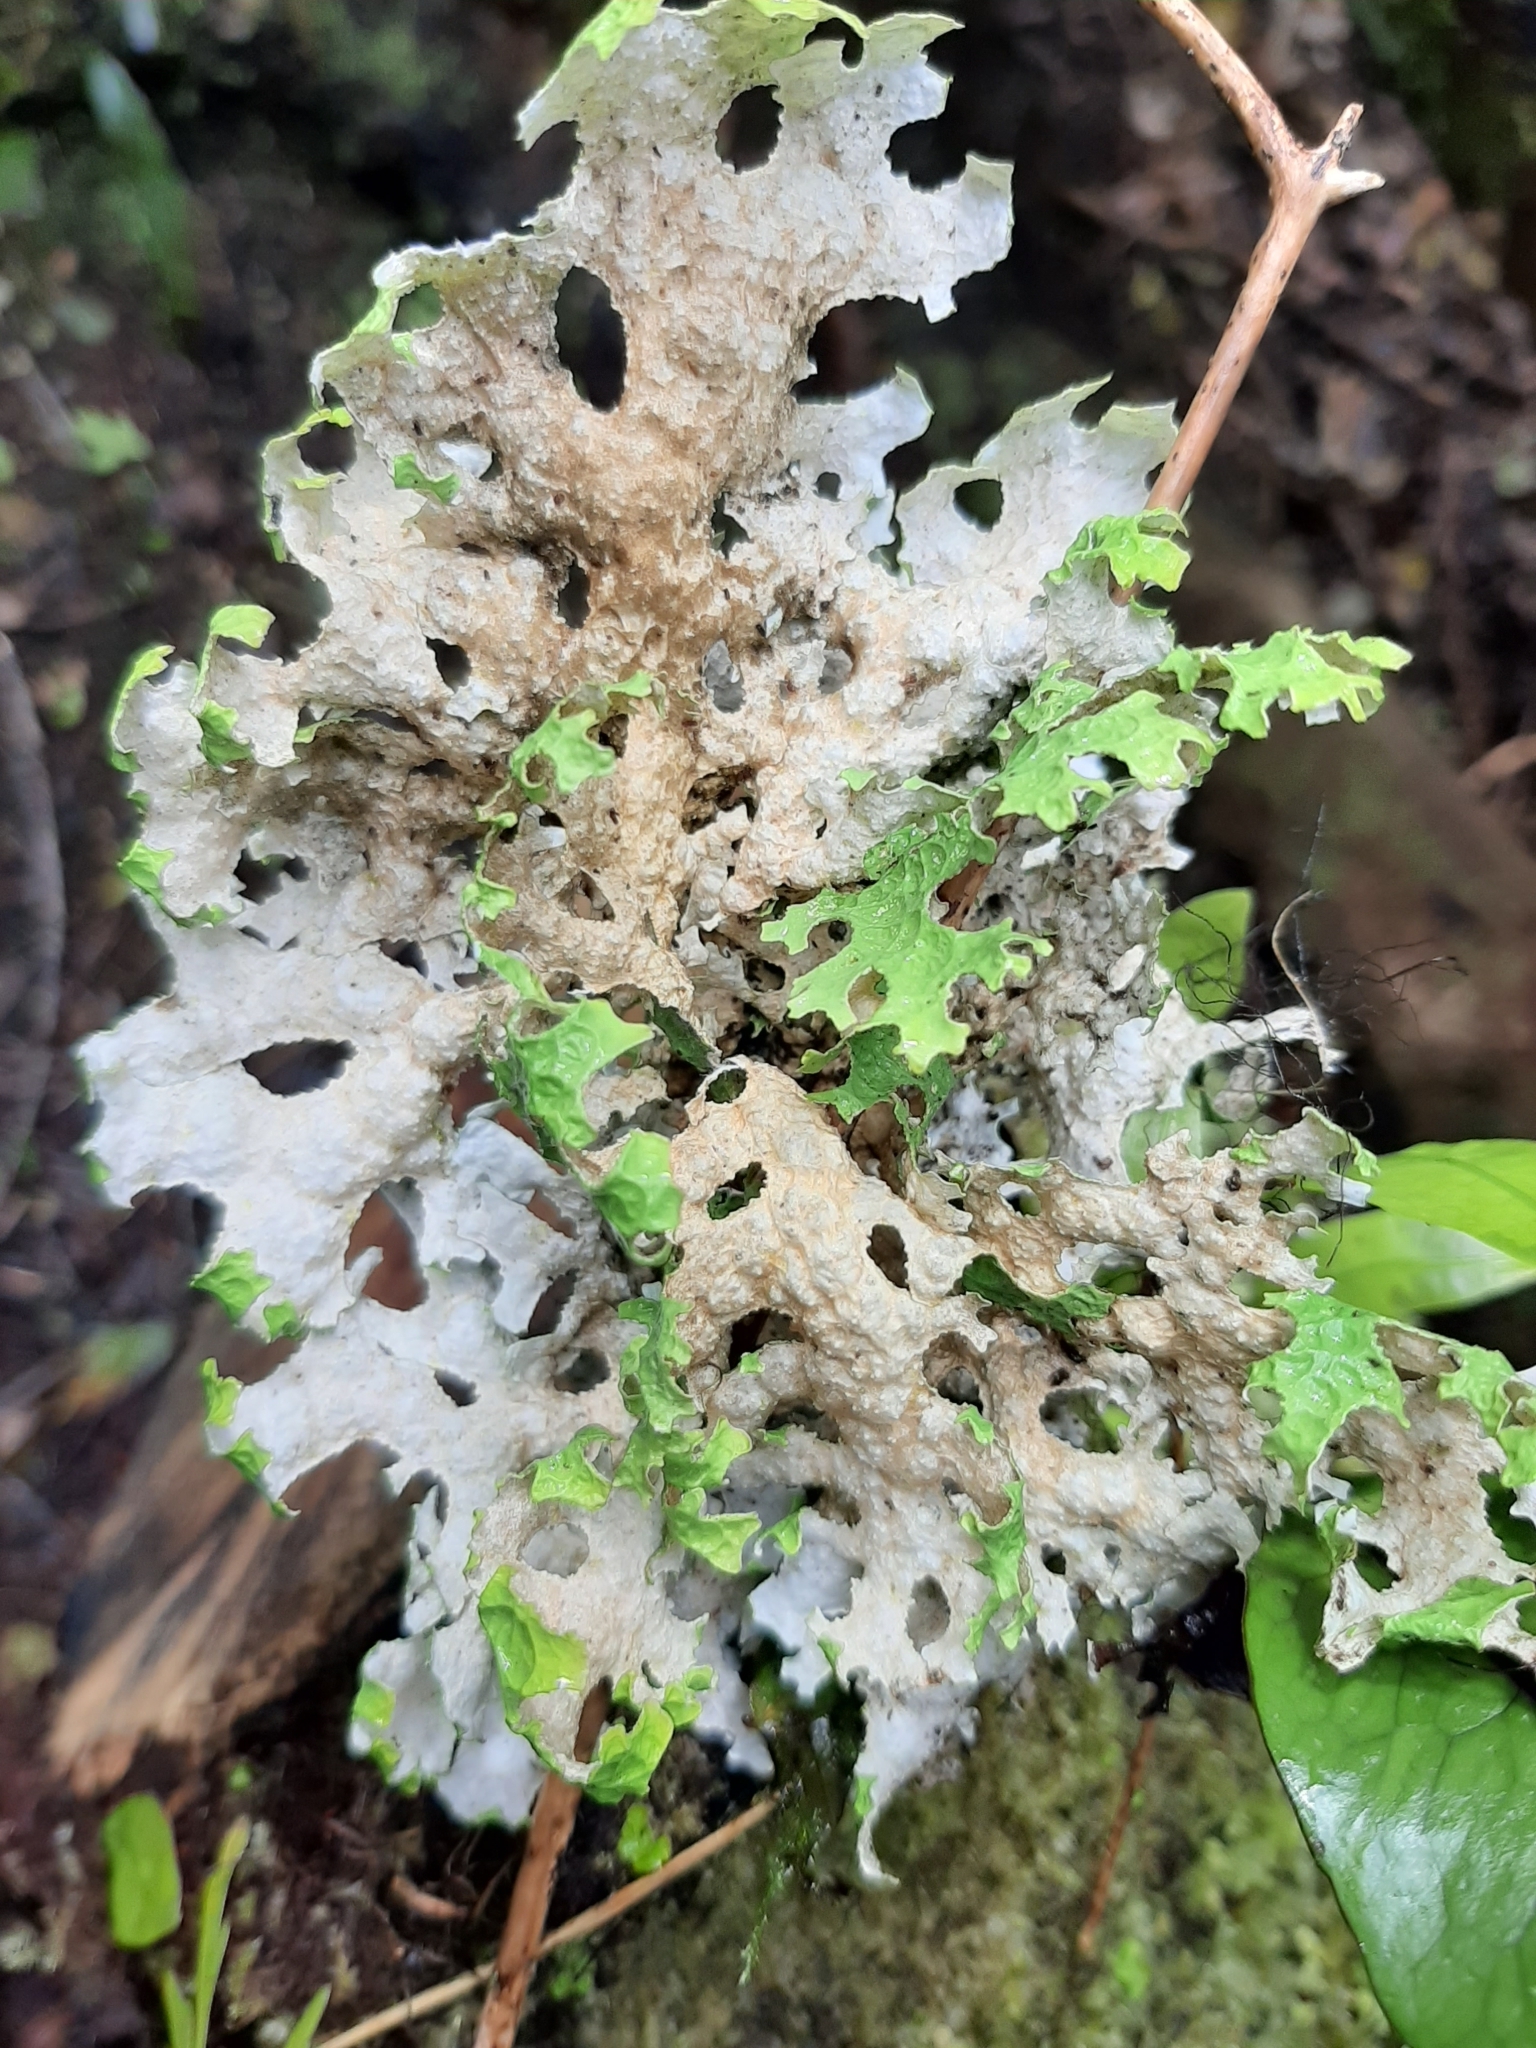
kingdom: Fungi
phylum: Ascomycota
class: Lecanoromycetes
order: Peltigerales
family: Lobariaceae
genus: Pseudocyphellaria
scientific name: Pseudocyphellaria faveolata
